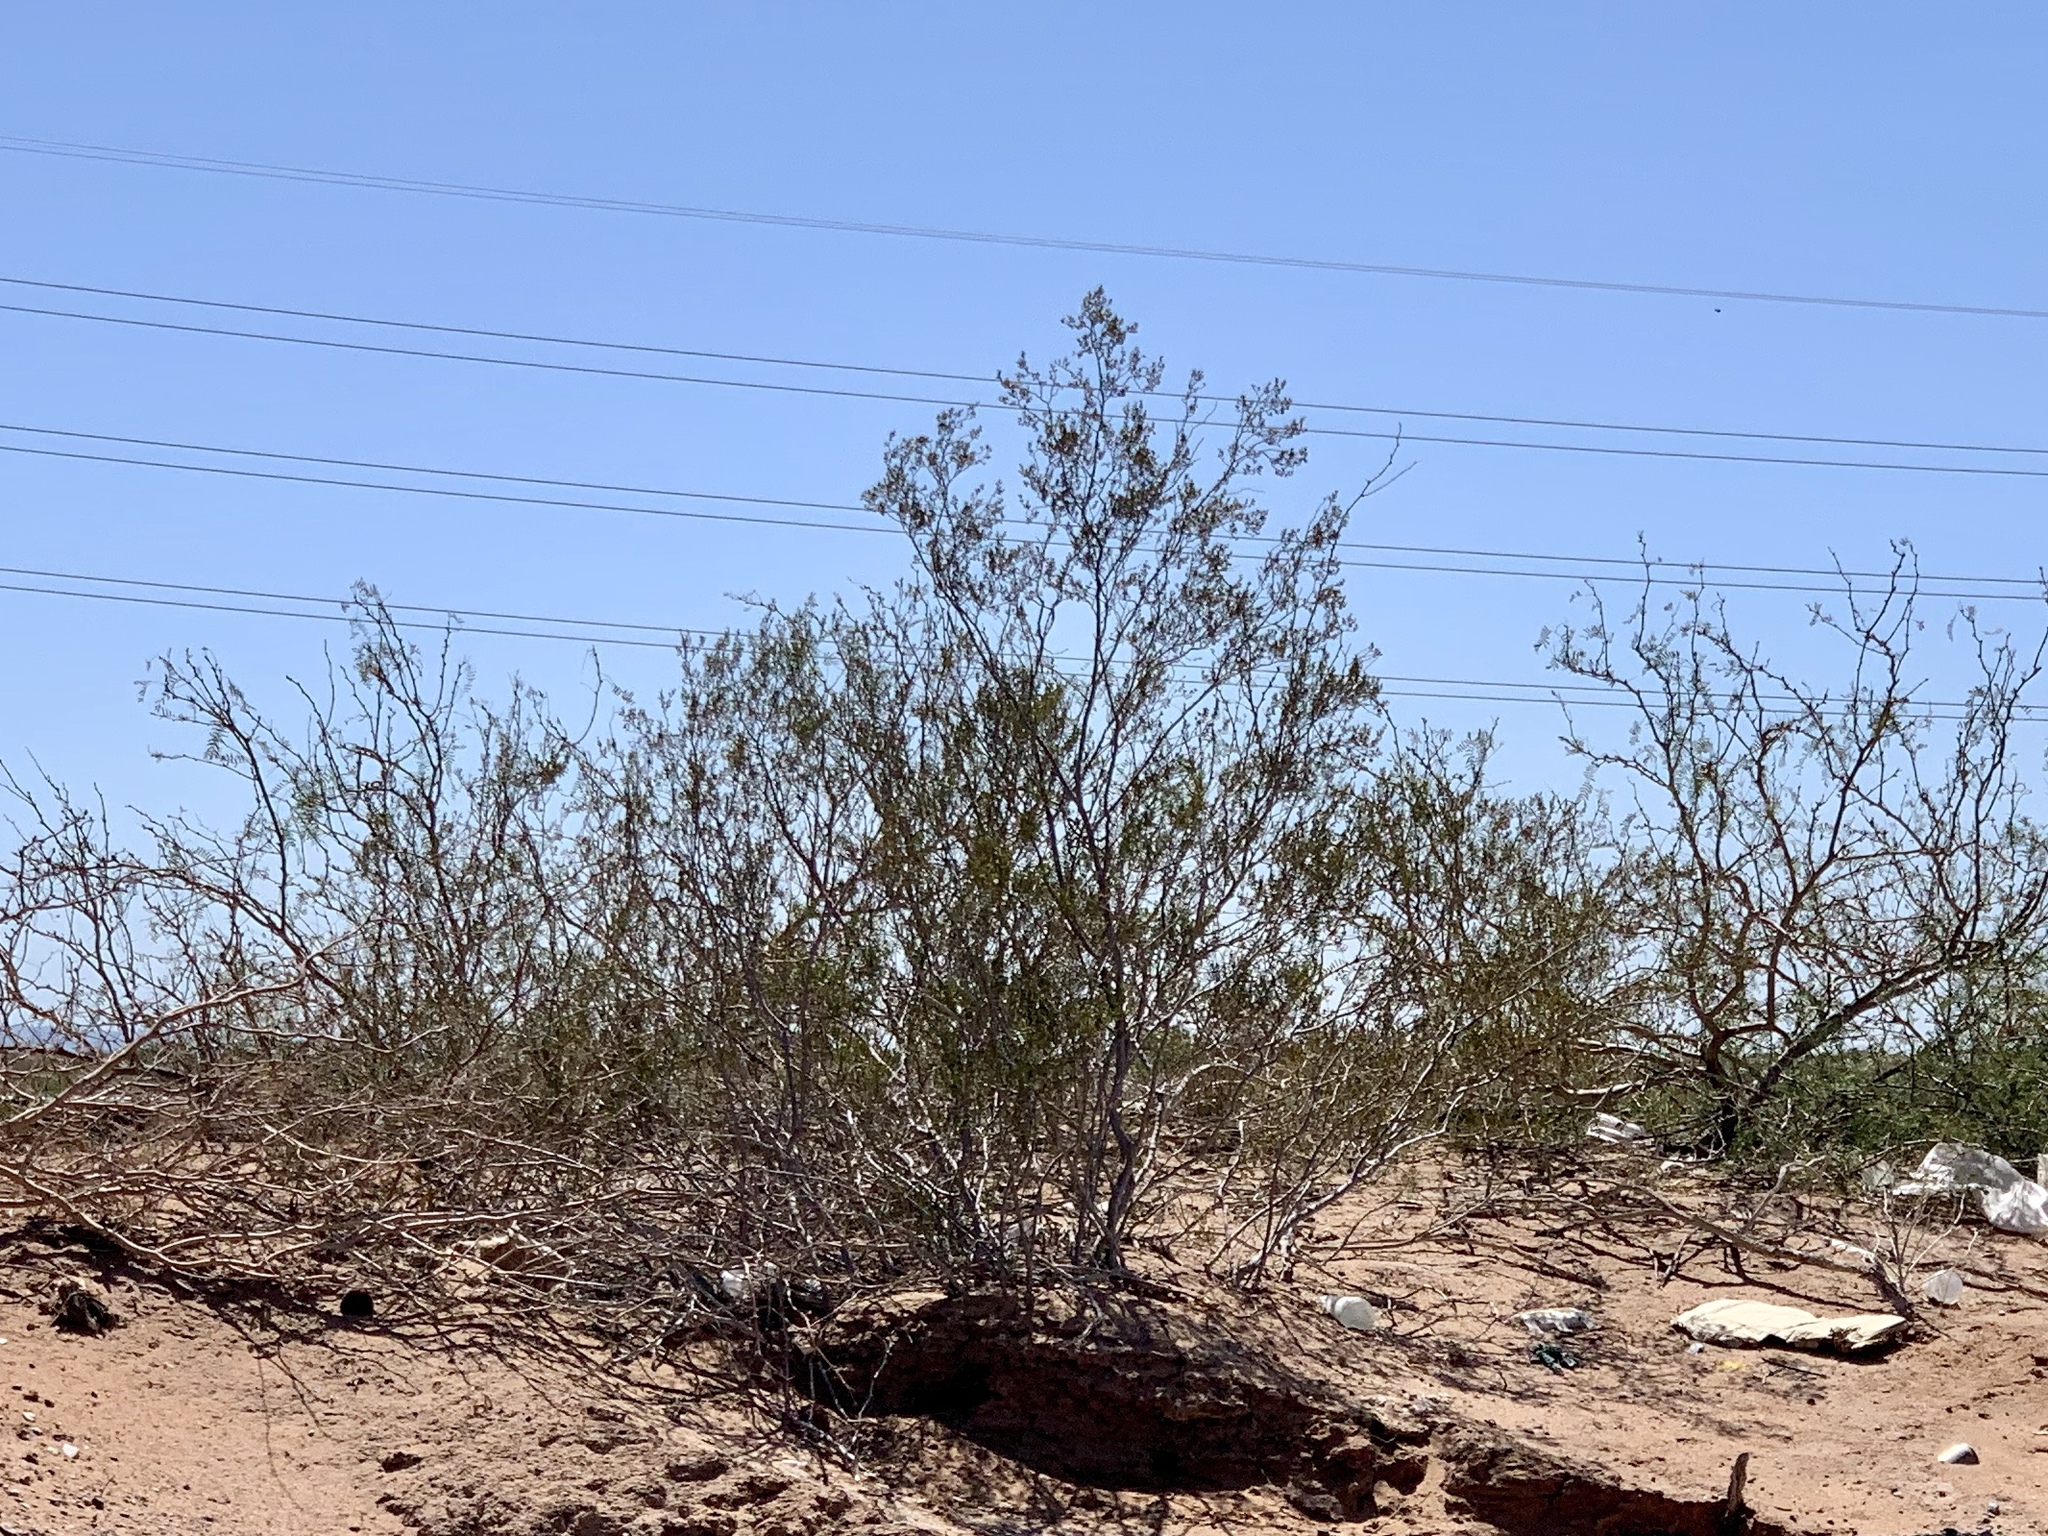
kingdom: Plantae
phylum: Tracheophyta
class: Magnoliopsida
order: Zygophyllales
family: Zygophyllaceae
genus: Larrea
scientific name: Larrea tridentata
